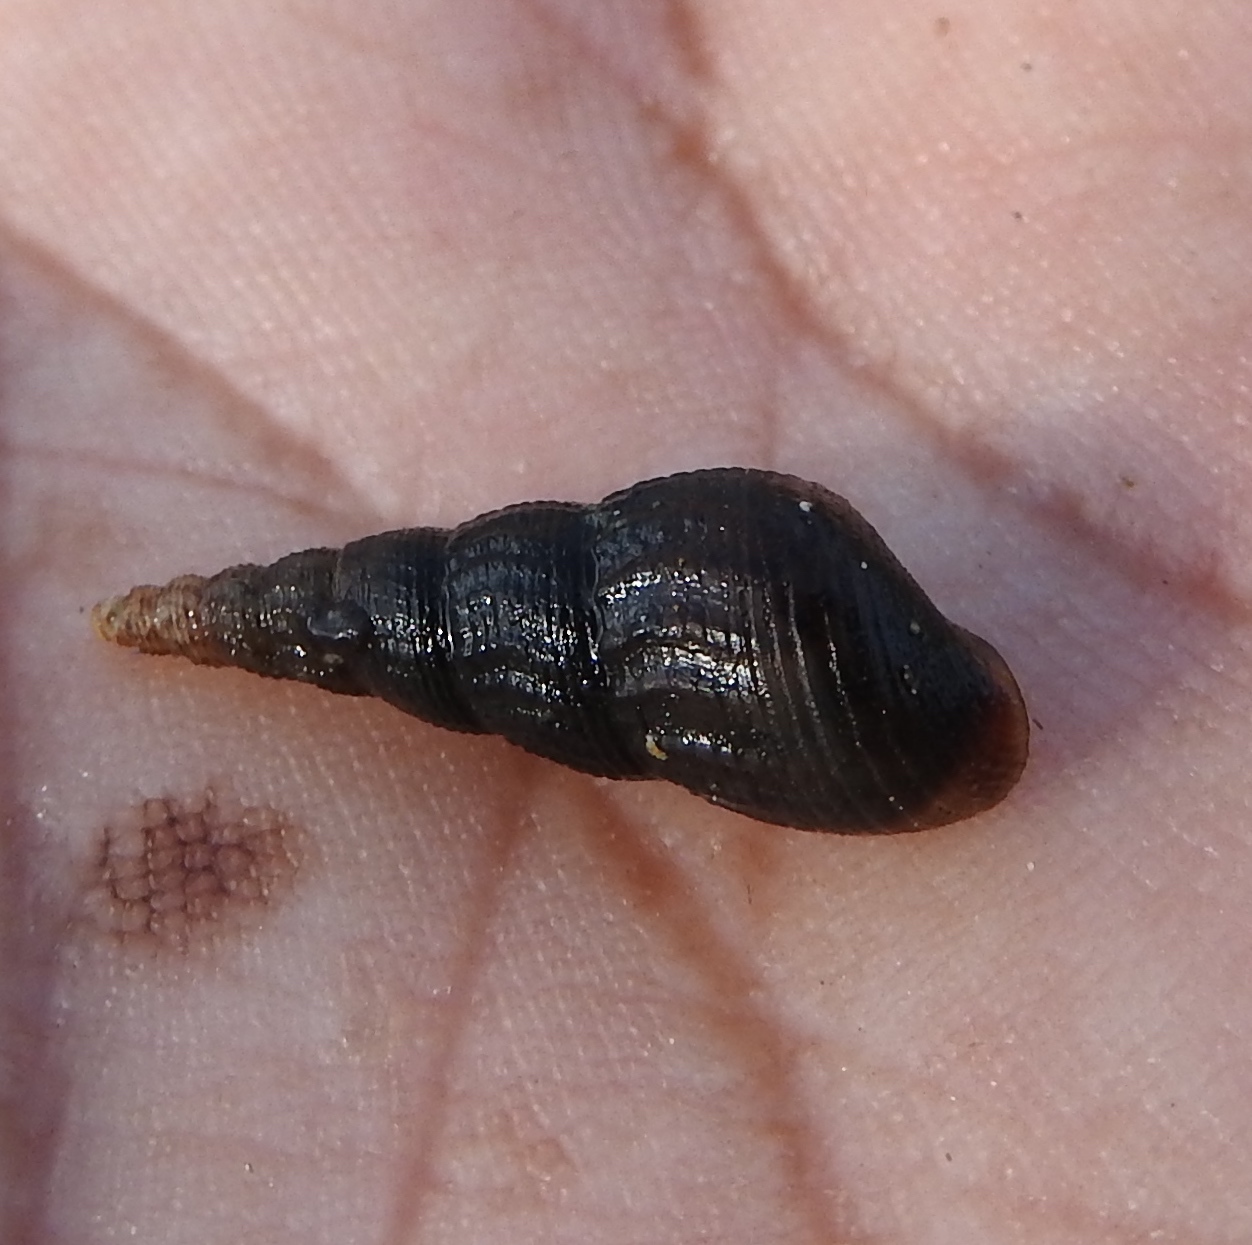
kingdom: Animalia
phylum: Mollusca
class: Gastropoda
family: Thiaridae
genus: Melanoides
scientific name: Melanoides tuberculata
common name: Red-rim melania
